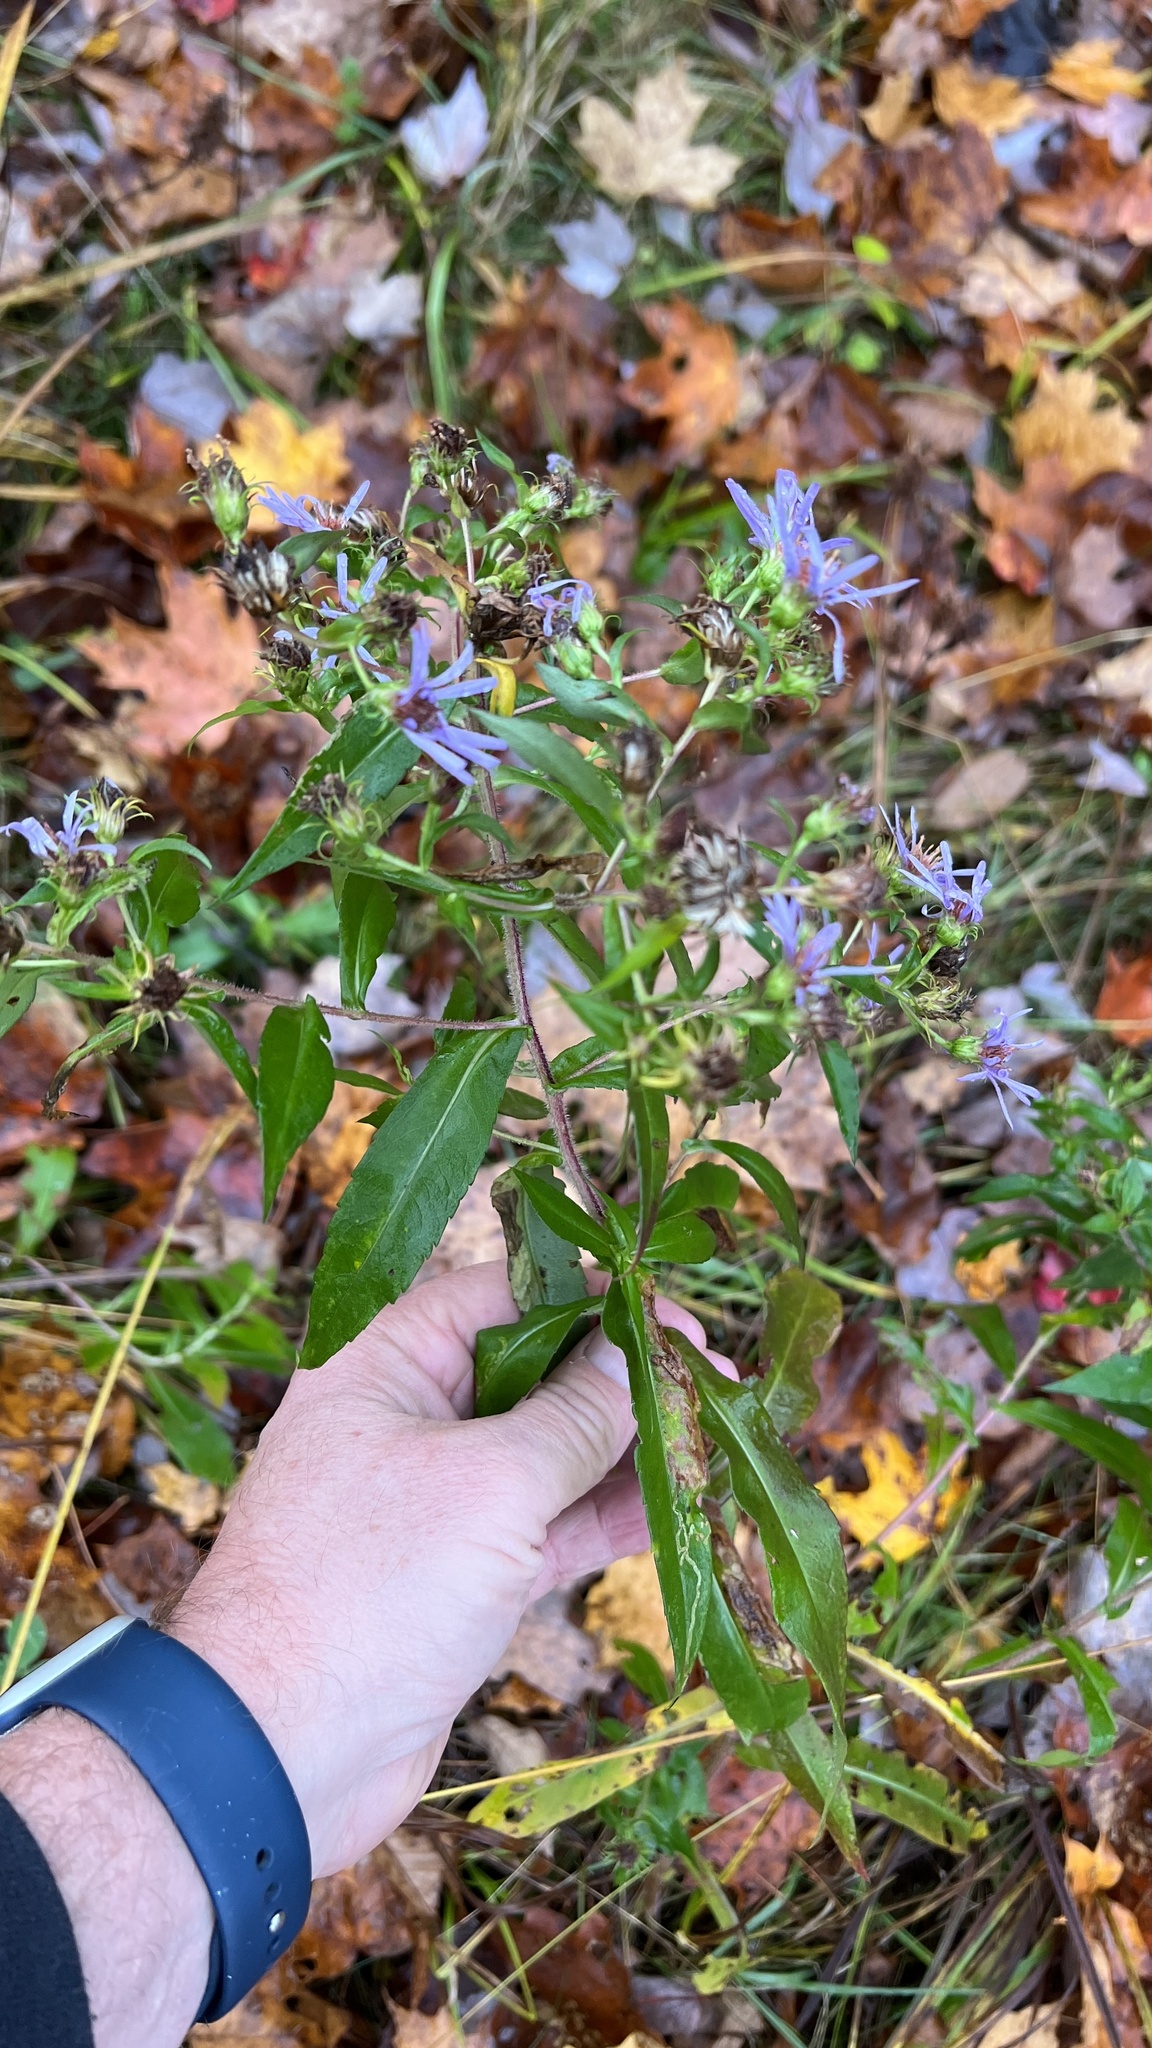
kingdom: Plantae
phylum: Tracheophyta
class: Magnoliopsida
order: Asterales
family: Asteraceae
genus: Symphyotrichum
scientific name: Symphyotrichum puniceum
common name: Bog aster
